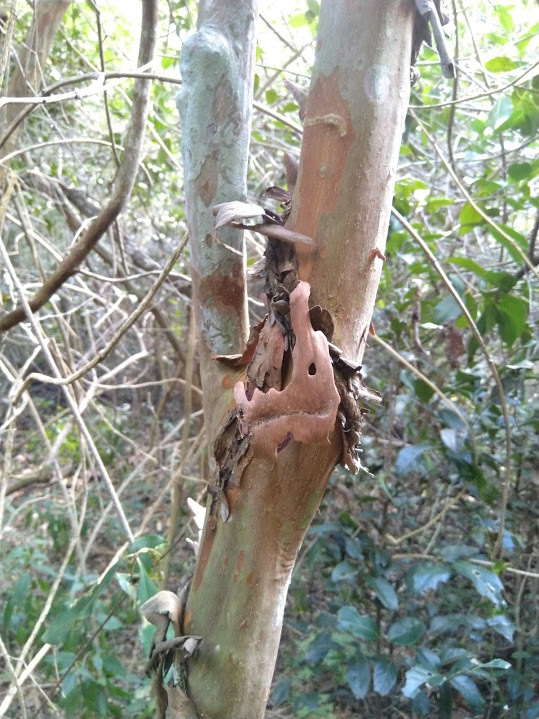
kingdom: Plantae
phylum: Tracheophyta
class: Magnoliopsida
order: Myrtales
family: Myrtaceae
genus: Gossia
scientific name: Gossia bidwillii
